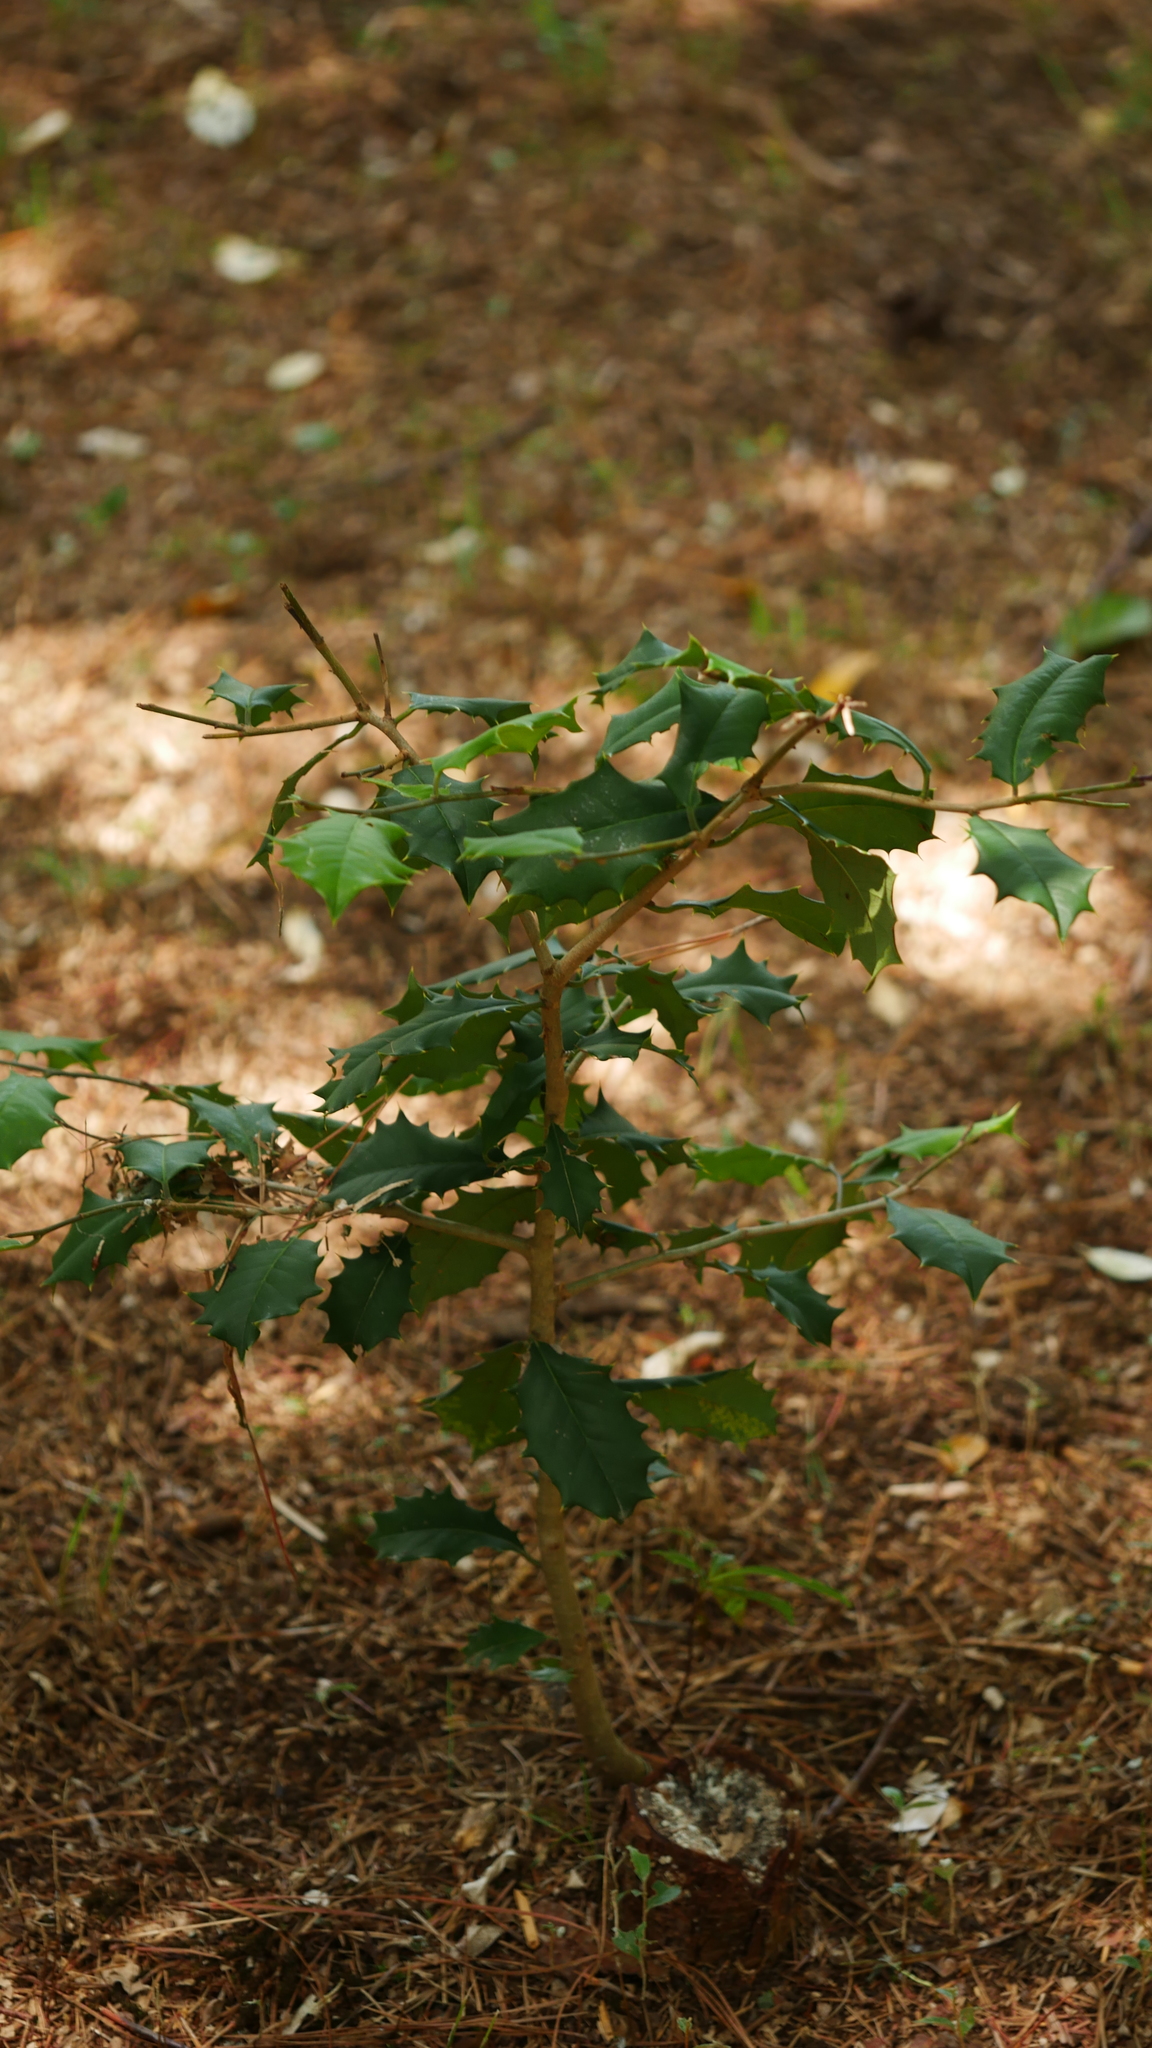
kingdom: Plantae
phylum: Tracheophyta
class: Magnoliopsida
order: Aquifoliales
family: Aquifoliaceae
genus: Ilex
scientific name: Ilex opaca
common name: American holly
